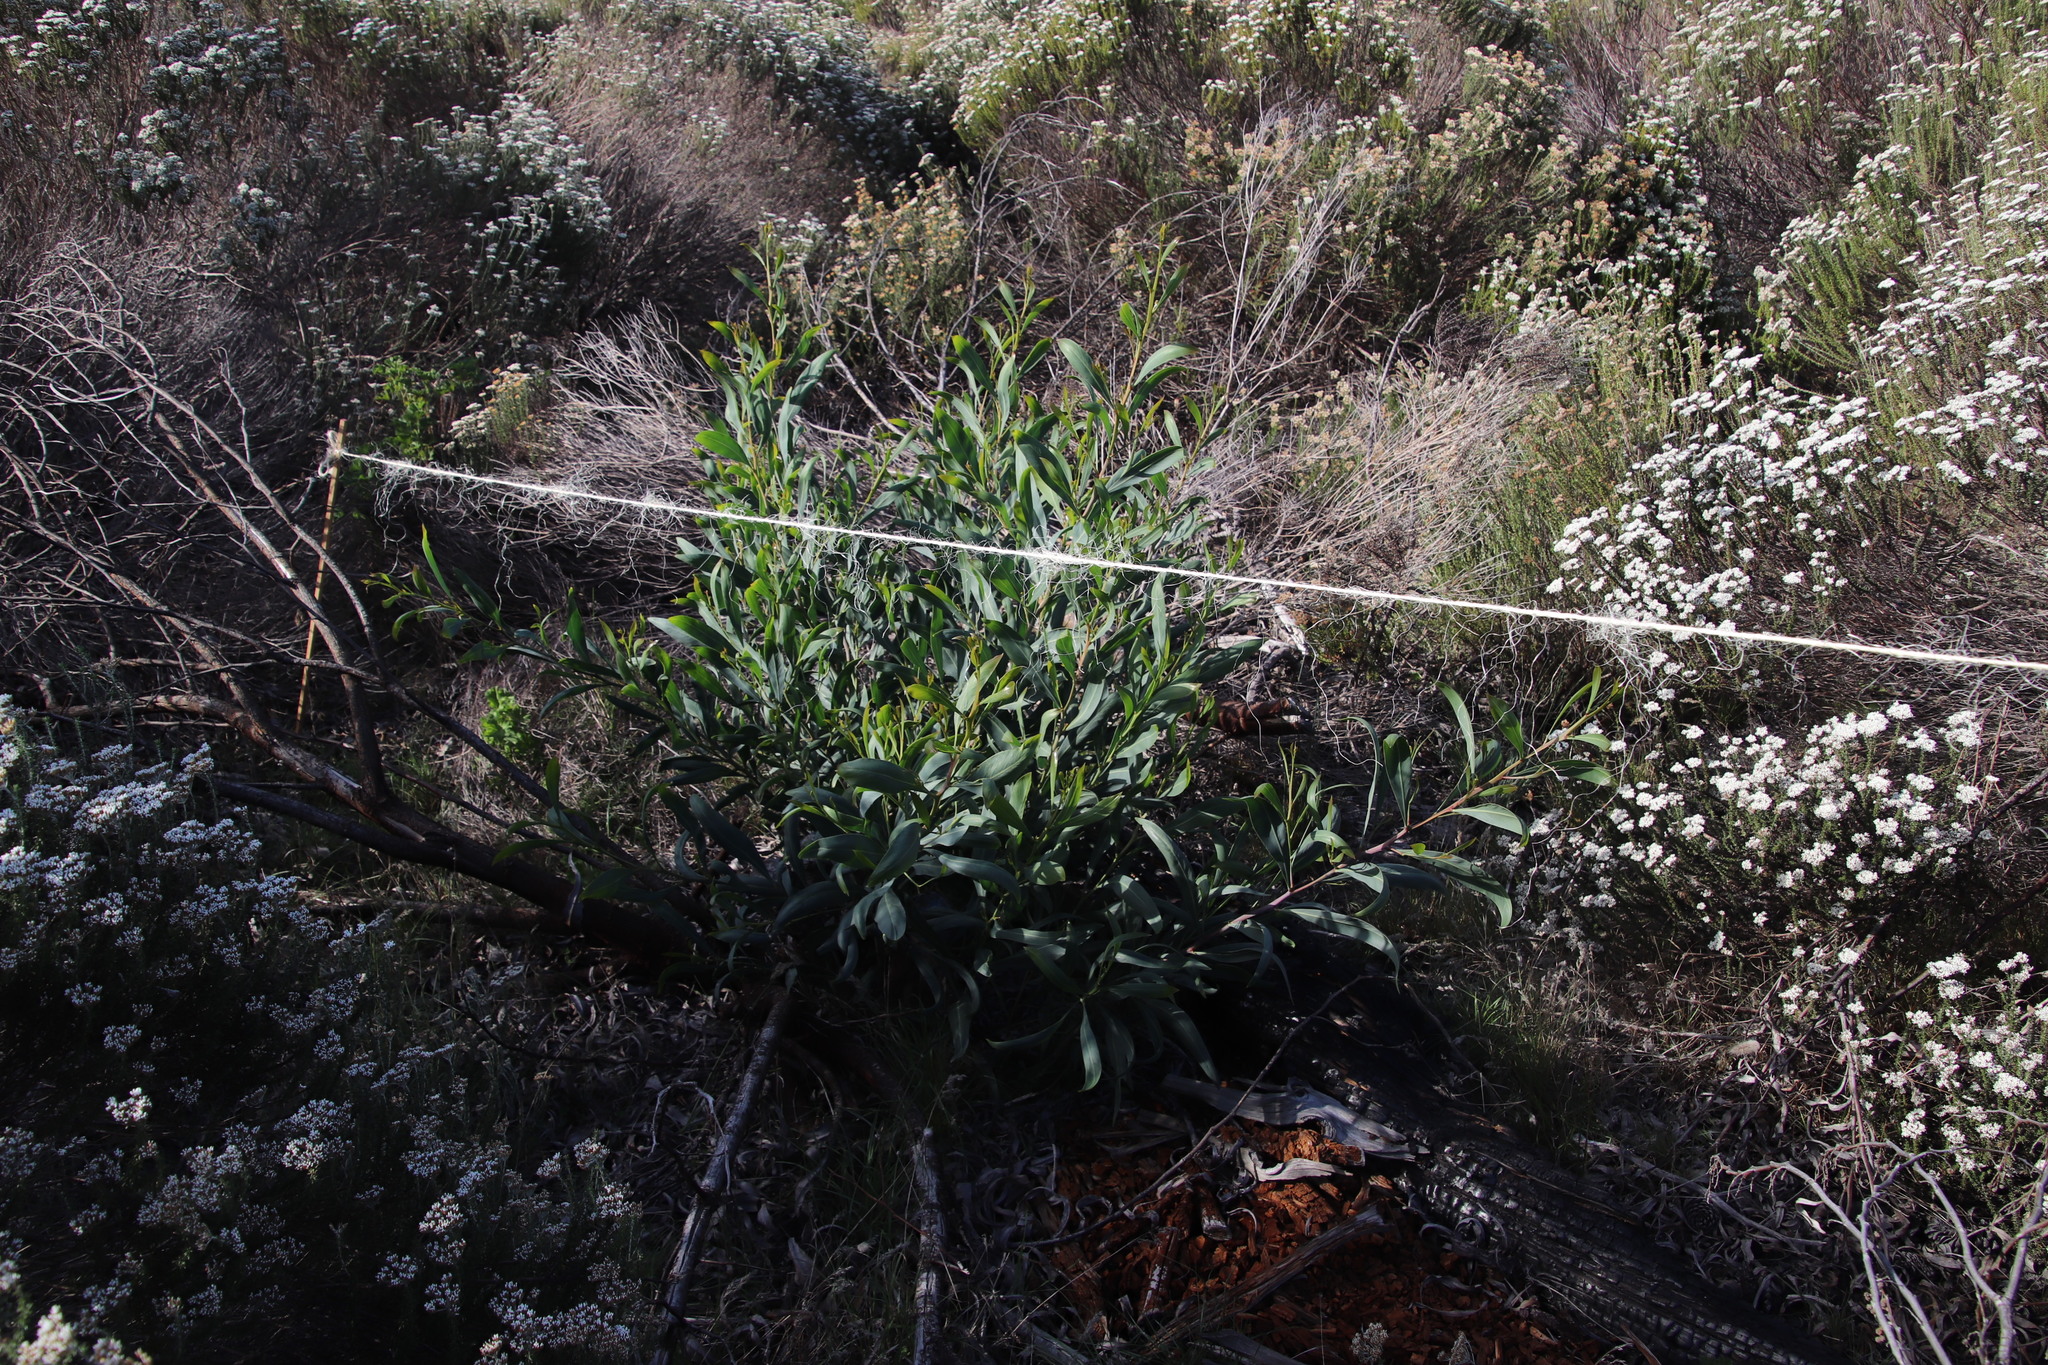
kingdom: Plantae
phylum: Tracheophyta
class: Magnoliopsida
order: Fabales
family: Fabaceae
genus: Acacia
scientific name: Acacia saligna
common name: Orange wattle
